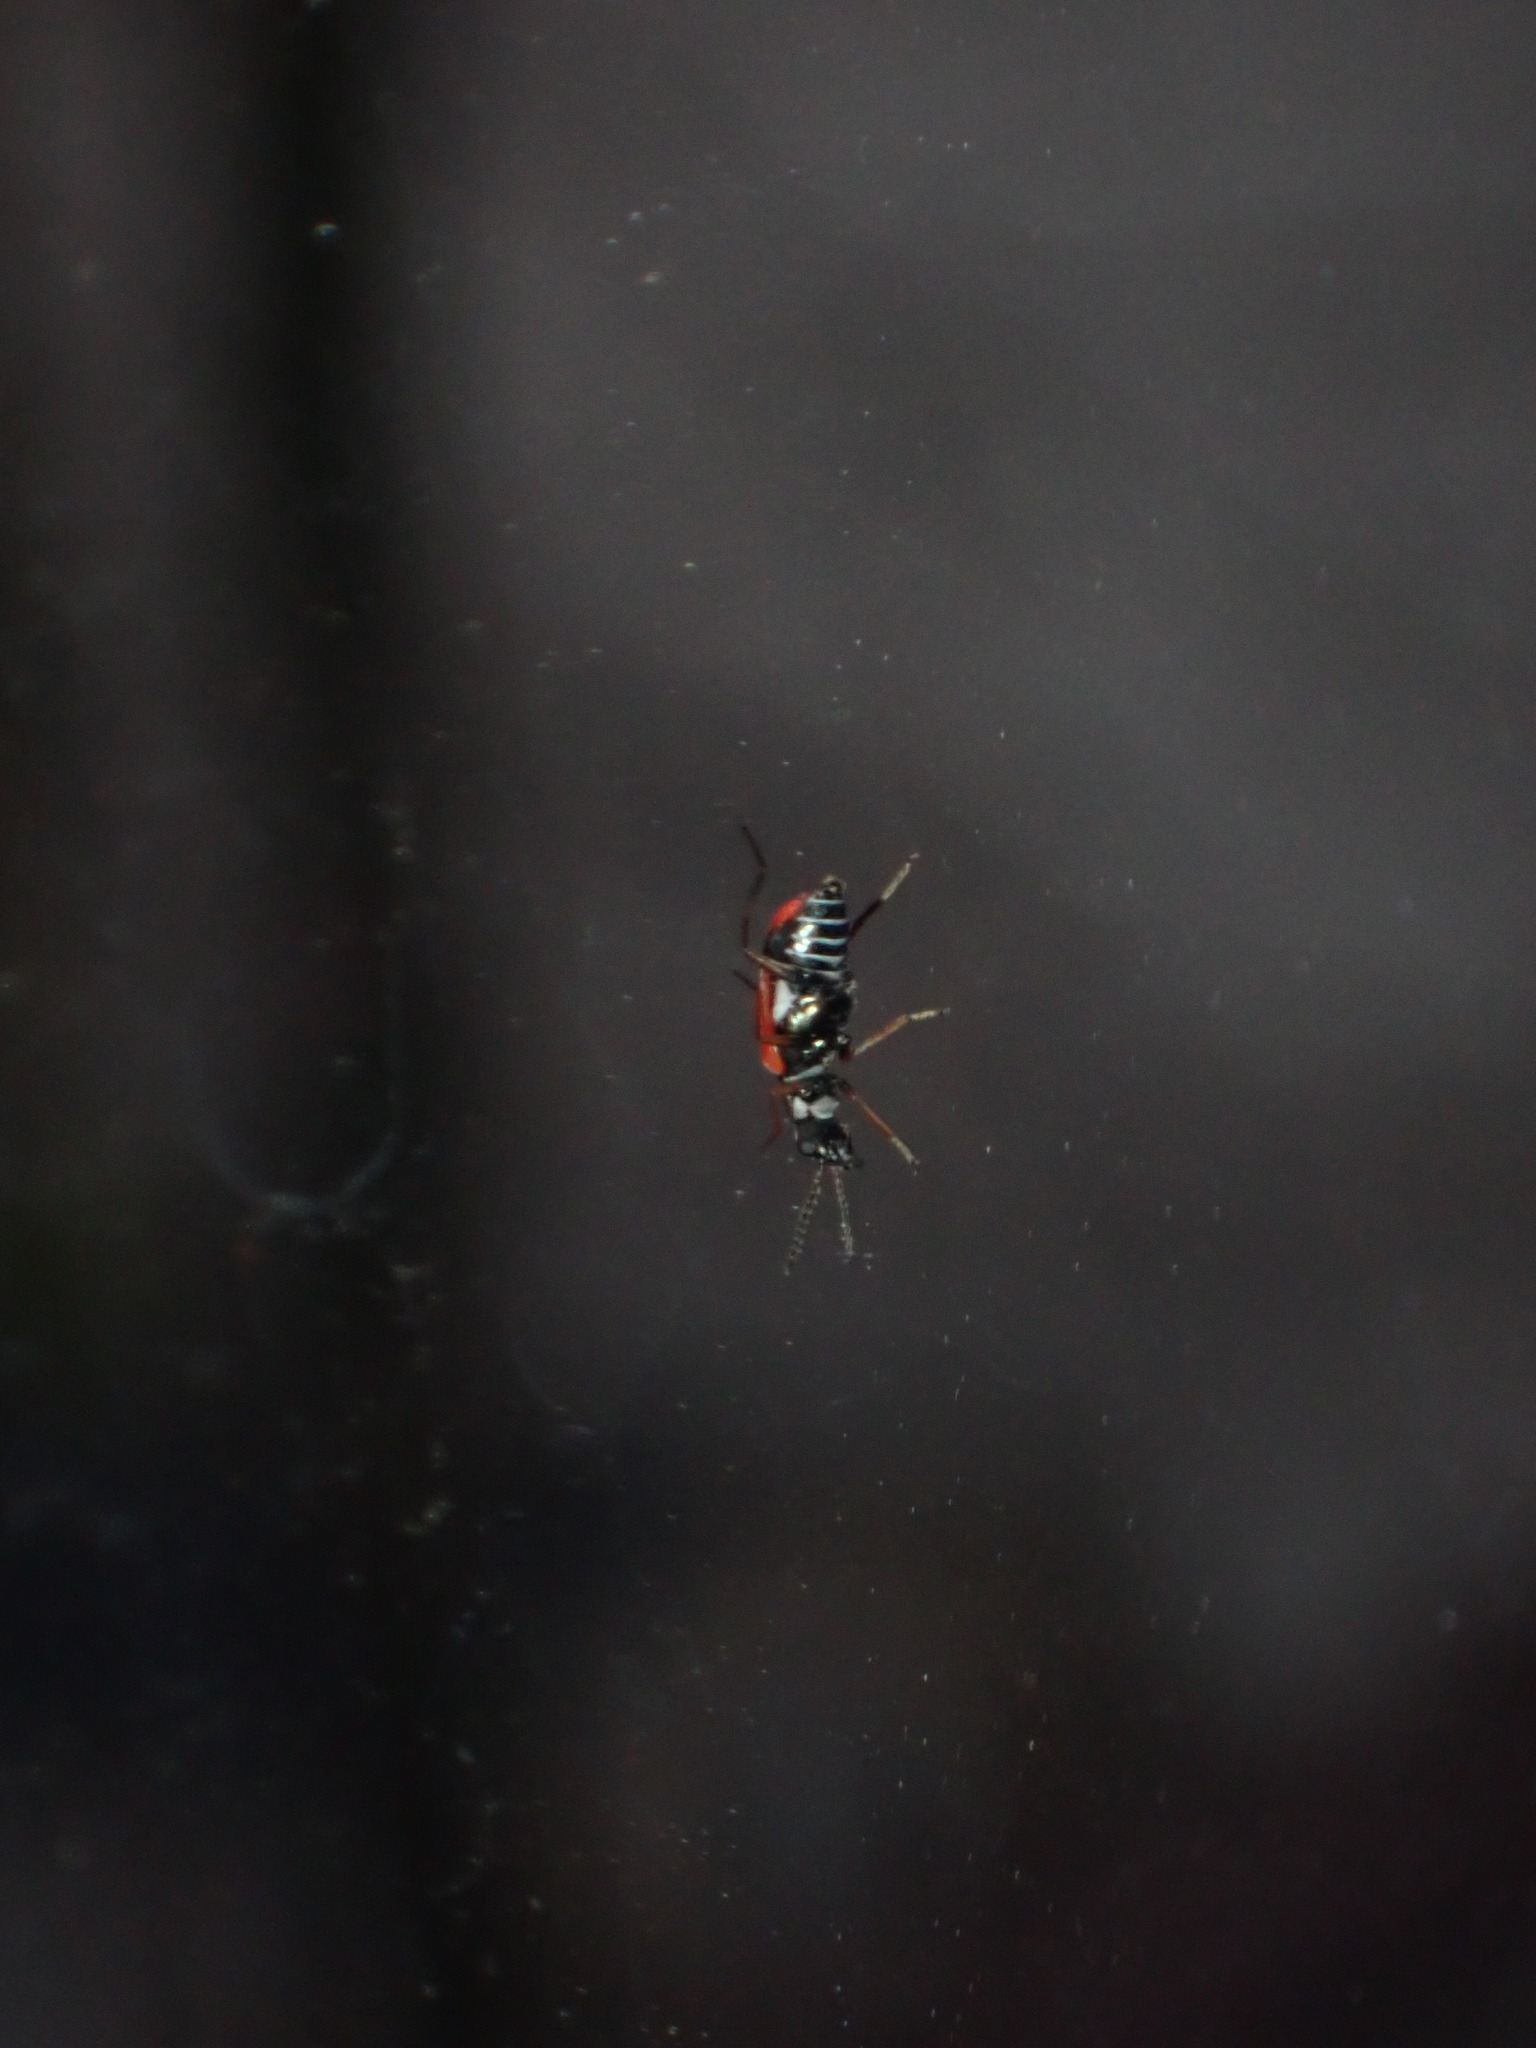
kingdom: Animalia
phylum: Arthropoda
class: Insecta
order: Coleoptera
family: Melyridae
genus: Anthocomus
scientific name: Anthocomus equestris
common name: Black-banded soft-winged flower beetle
